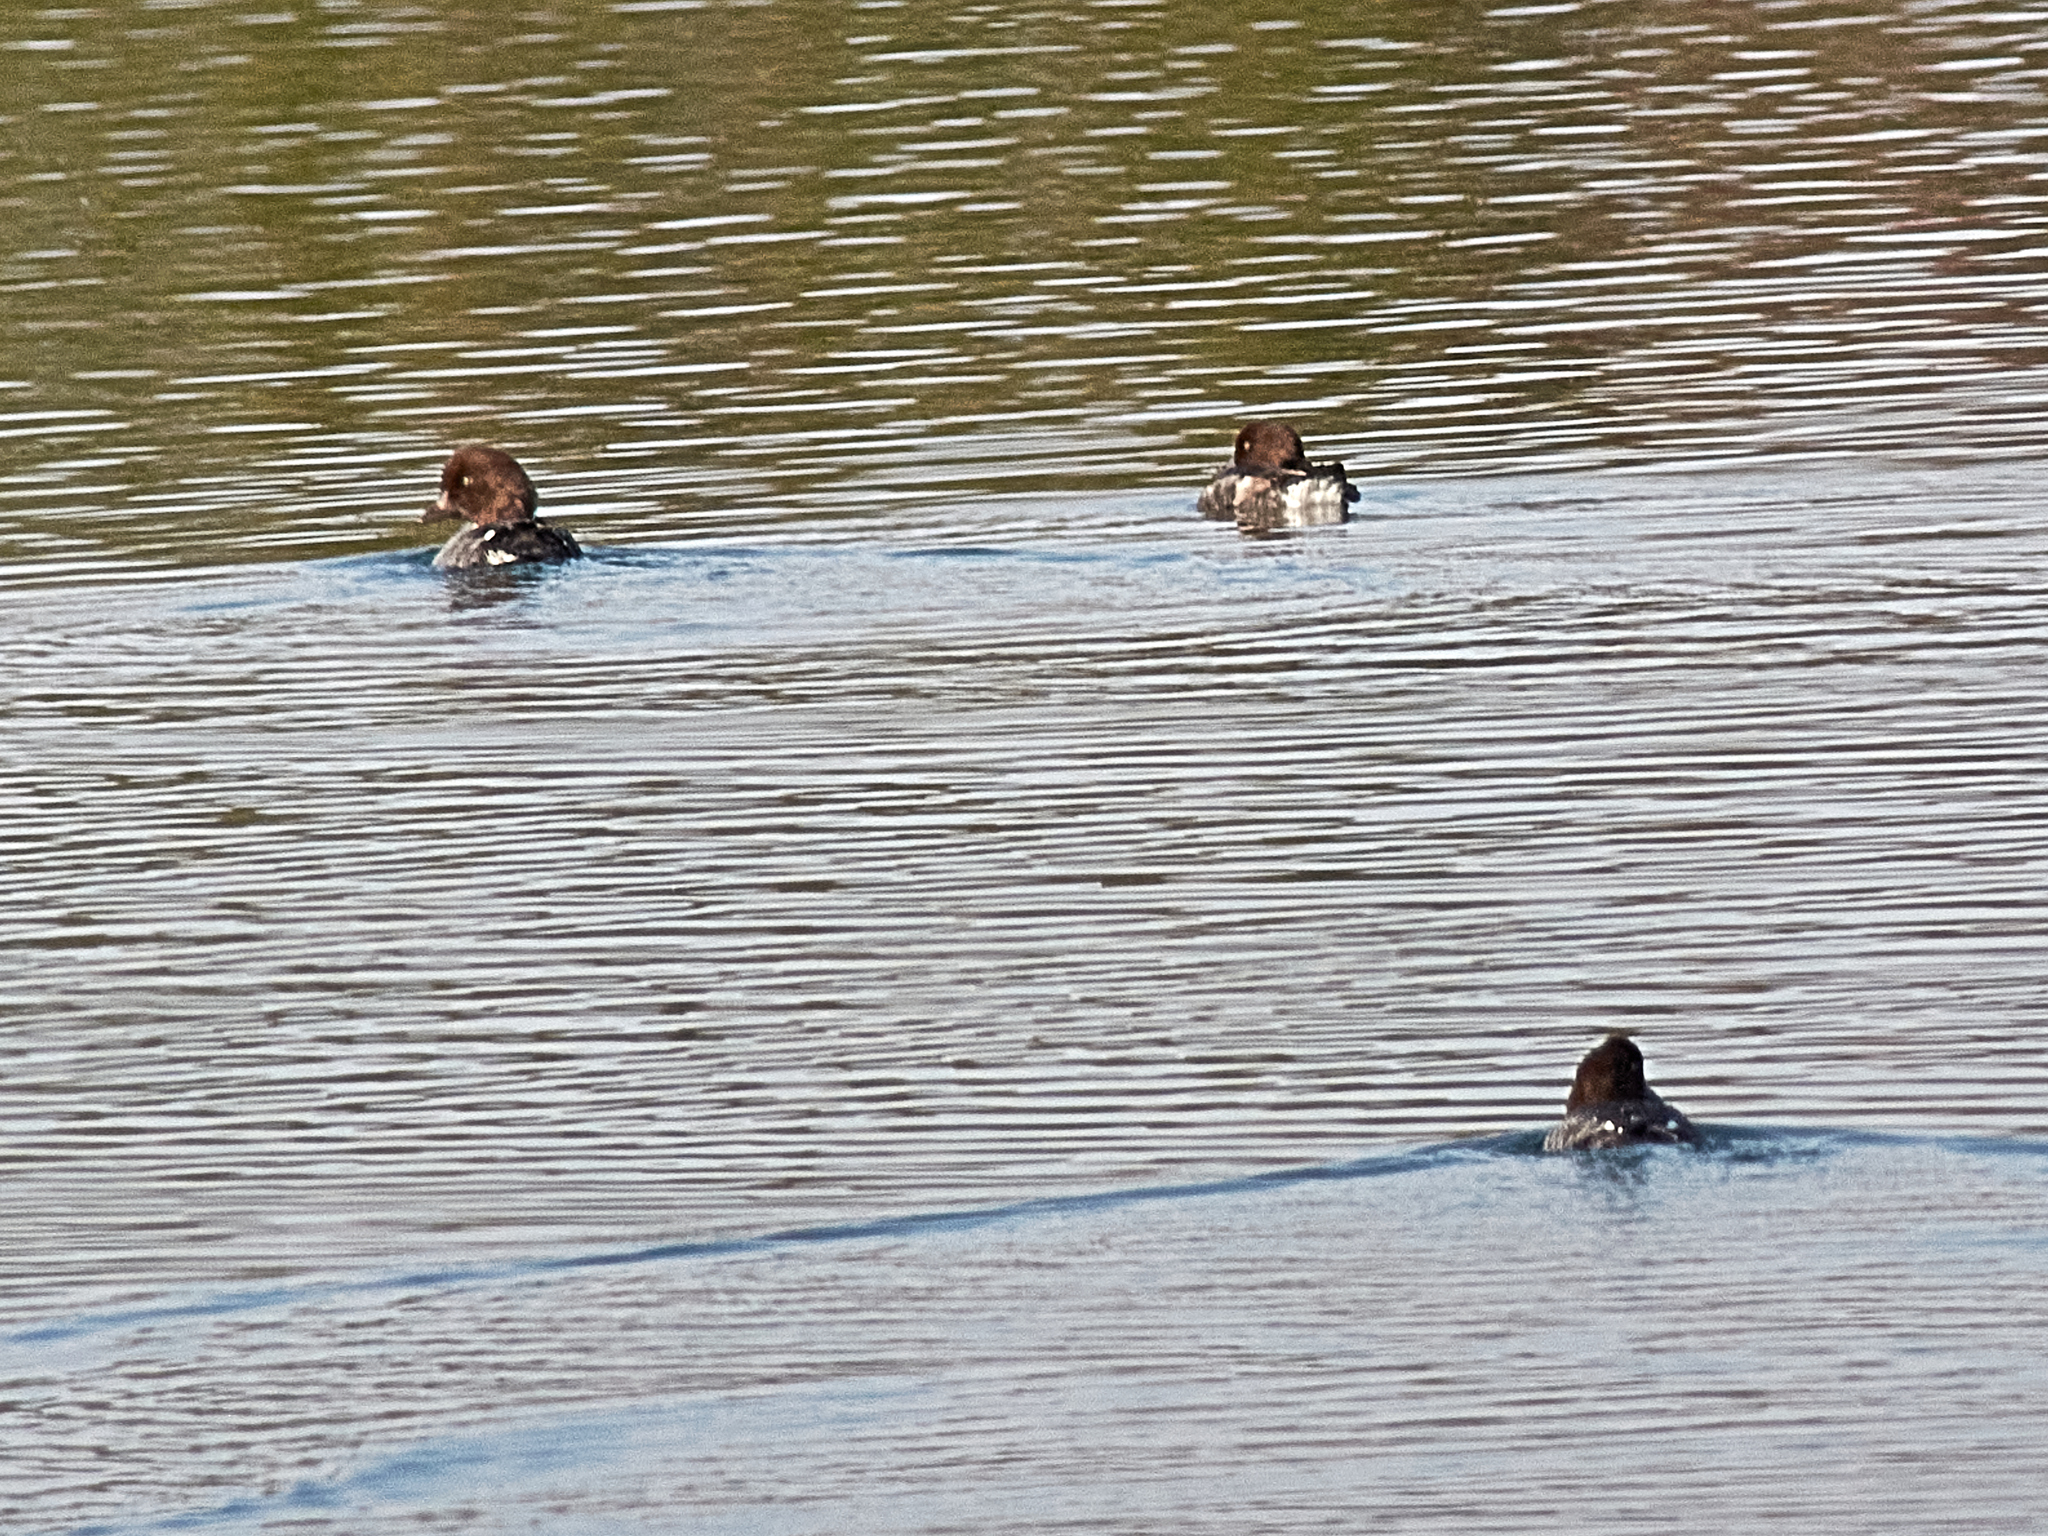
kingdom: Animalia
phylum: Chordata
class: Aves
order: Anseriformes
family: Anatidae
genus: Bucephala
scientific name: Bucephala clangula
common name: Common goldeneye
